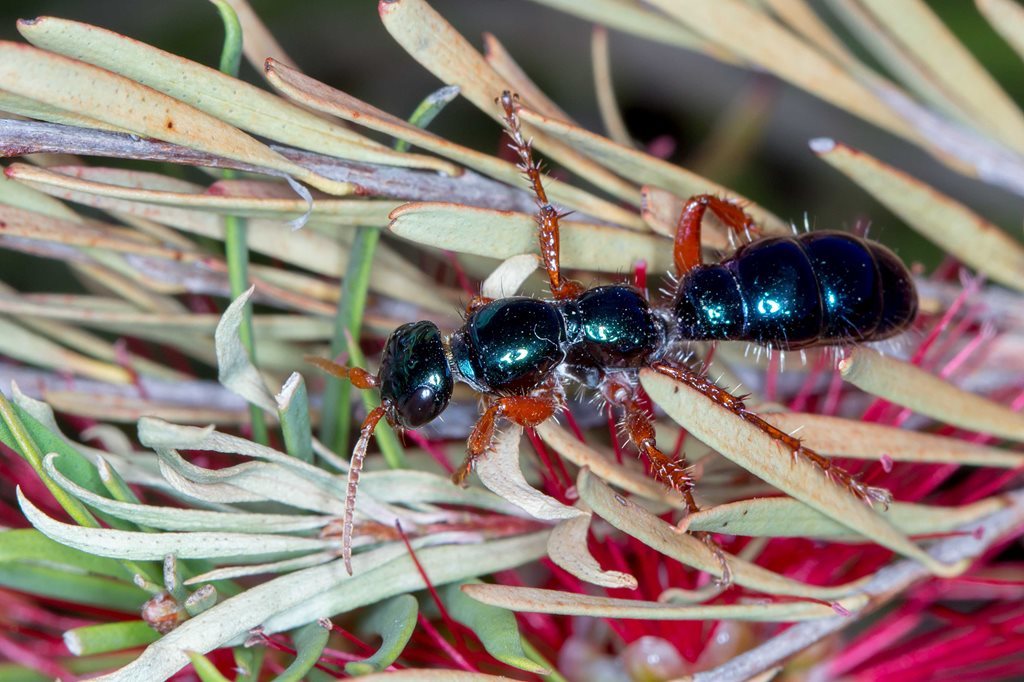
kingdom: Animalia
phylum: Arthropoda
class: Insecta
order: Hymenoptera
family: Tiphiidae
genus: Diamma
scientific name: Diamma
